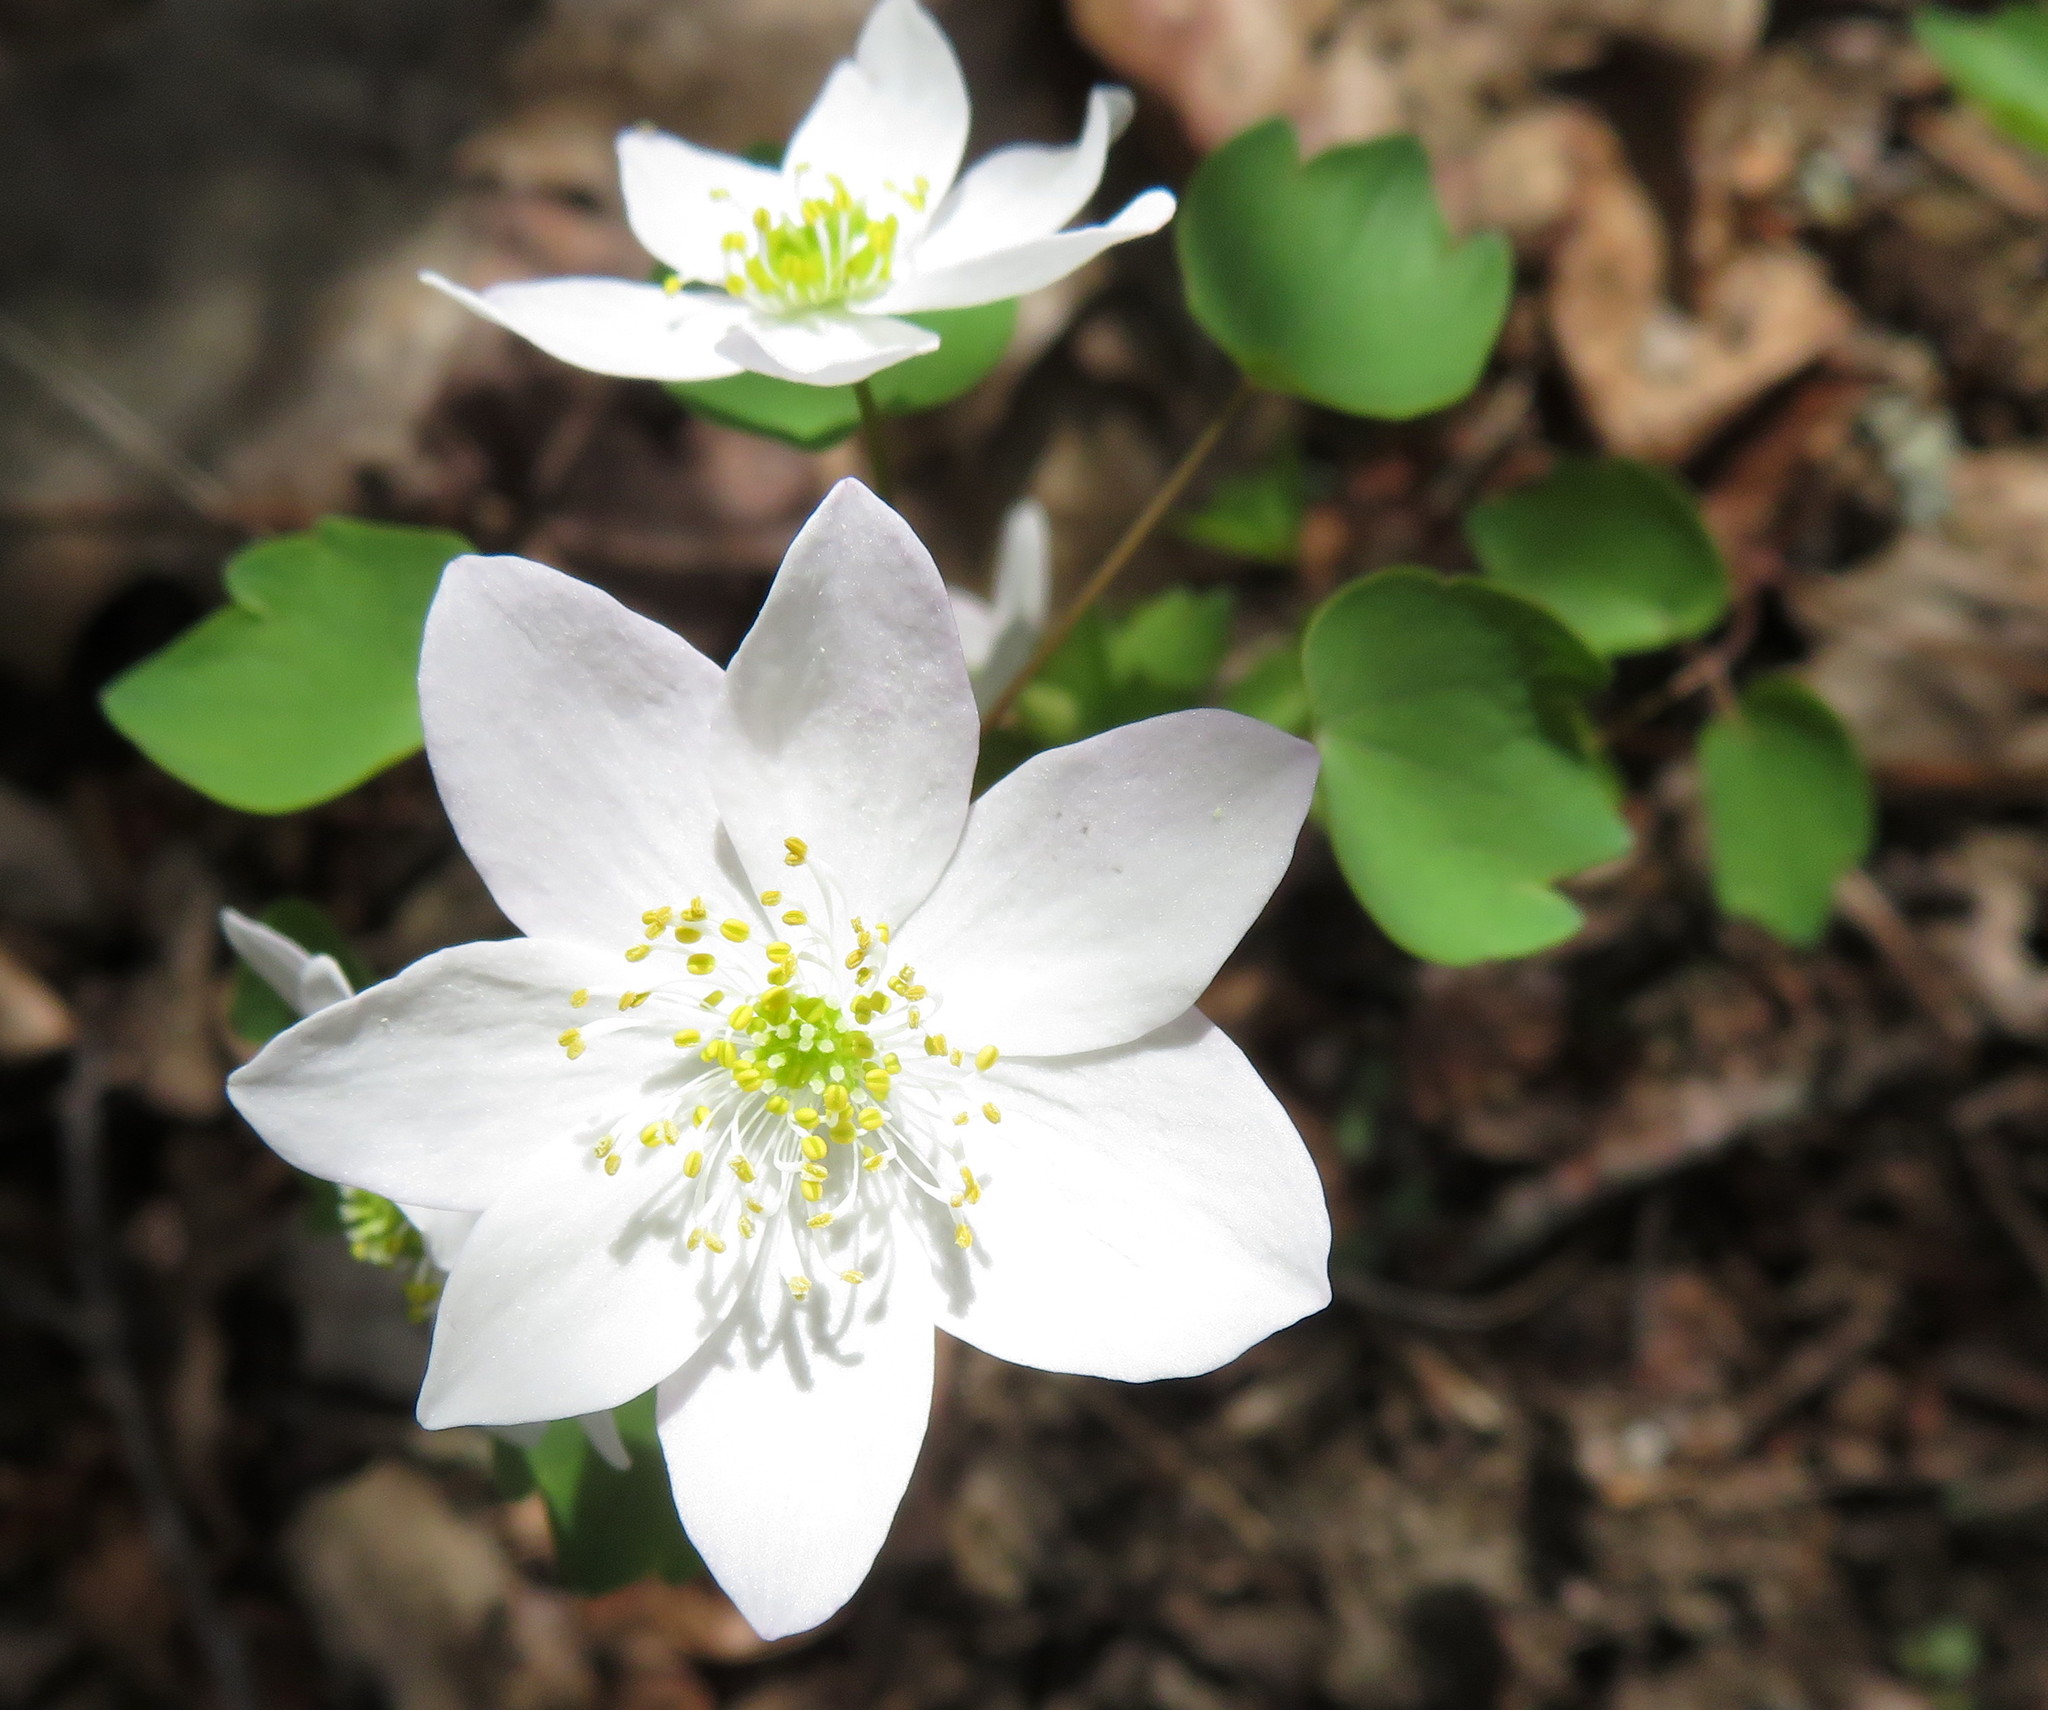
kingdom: Plantae
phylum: Tracheophyta
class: Magnoliopsida
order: Ranunculales
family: Ranunculaceae
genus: Thalictrum
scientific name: Thalictrum thalictroides
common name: Rue-anemone
